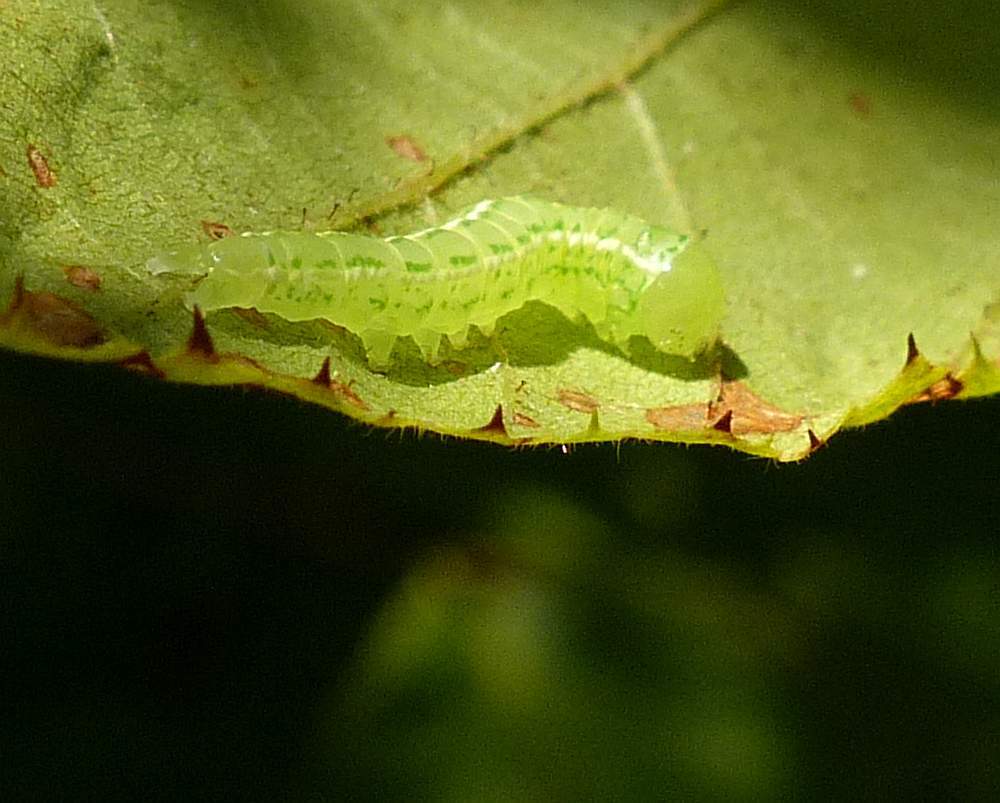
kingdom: Animalia
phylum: Arthropoda
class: Insecta
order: Lepidoptera
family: Nolidae
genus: Baileya
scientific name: Baileya dormitans
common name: Sleeping baileya moth
